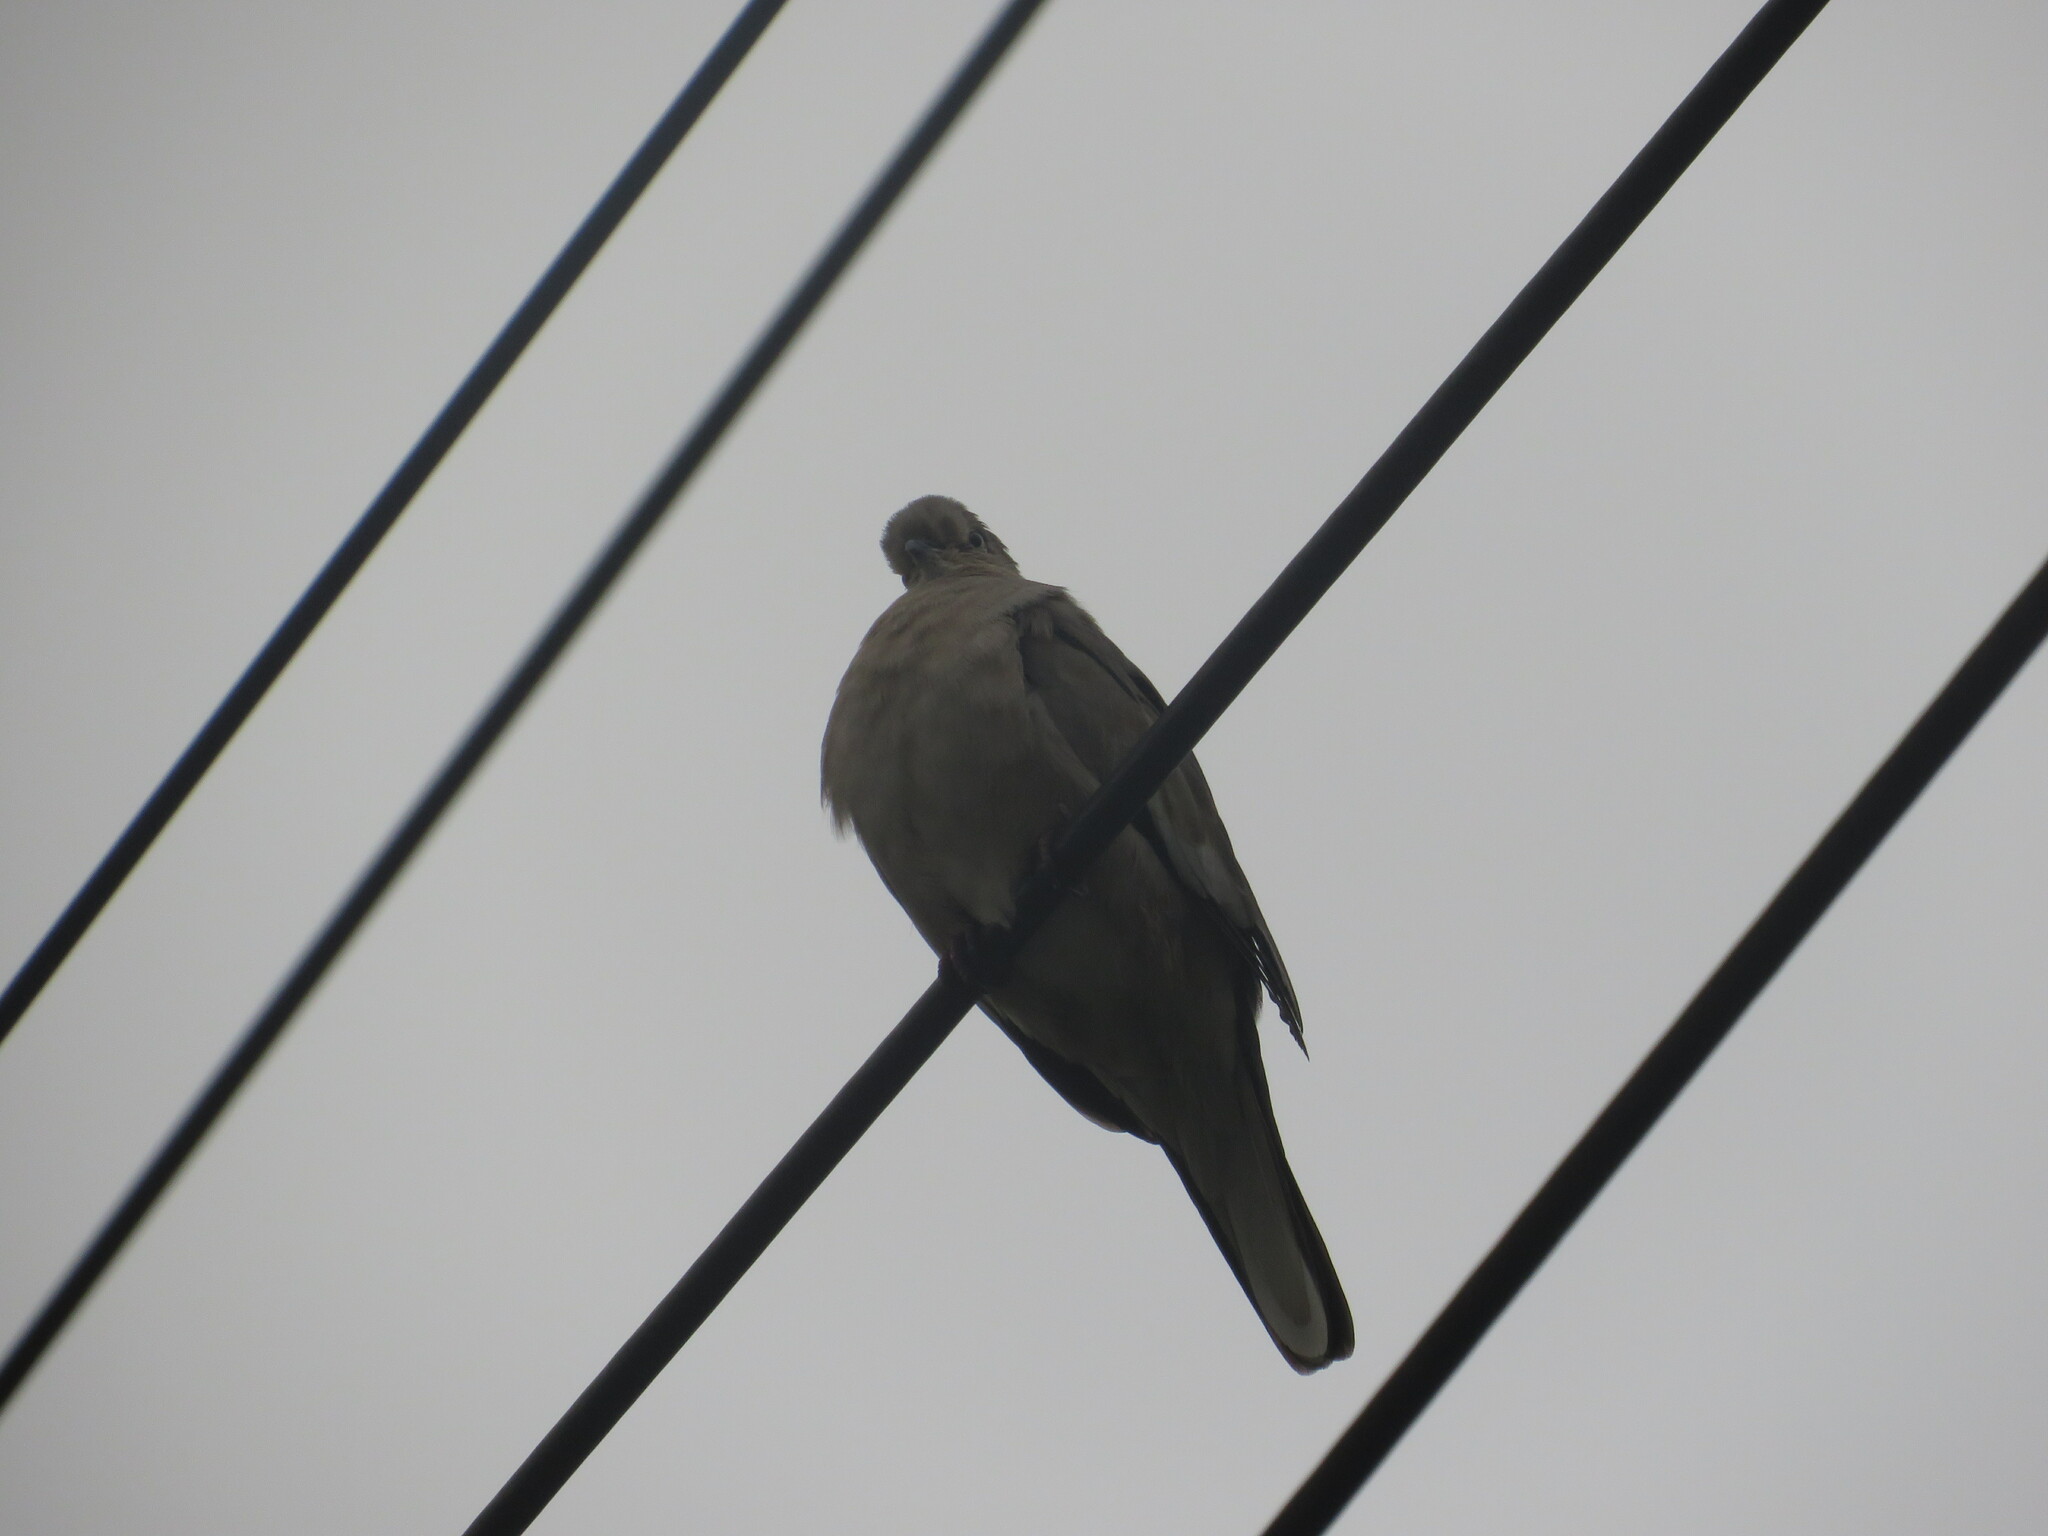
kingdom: Animalia
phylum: Chordata
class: Aves
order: Columbiformes
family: Columbidae
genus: Zenaida
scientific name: Zenaida auriculata
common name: Eared dove
